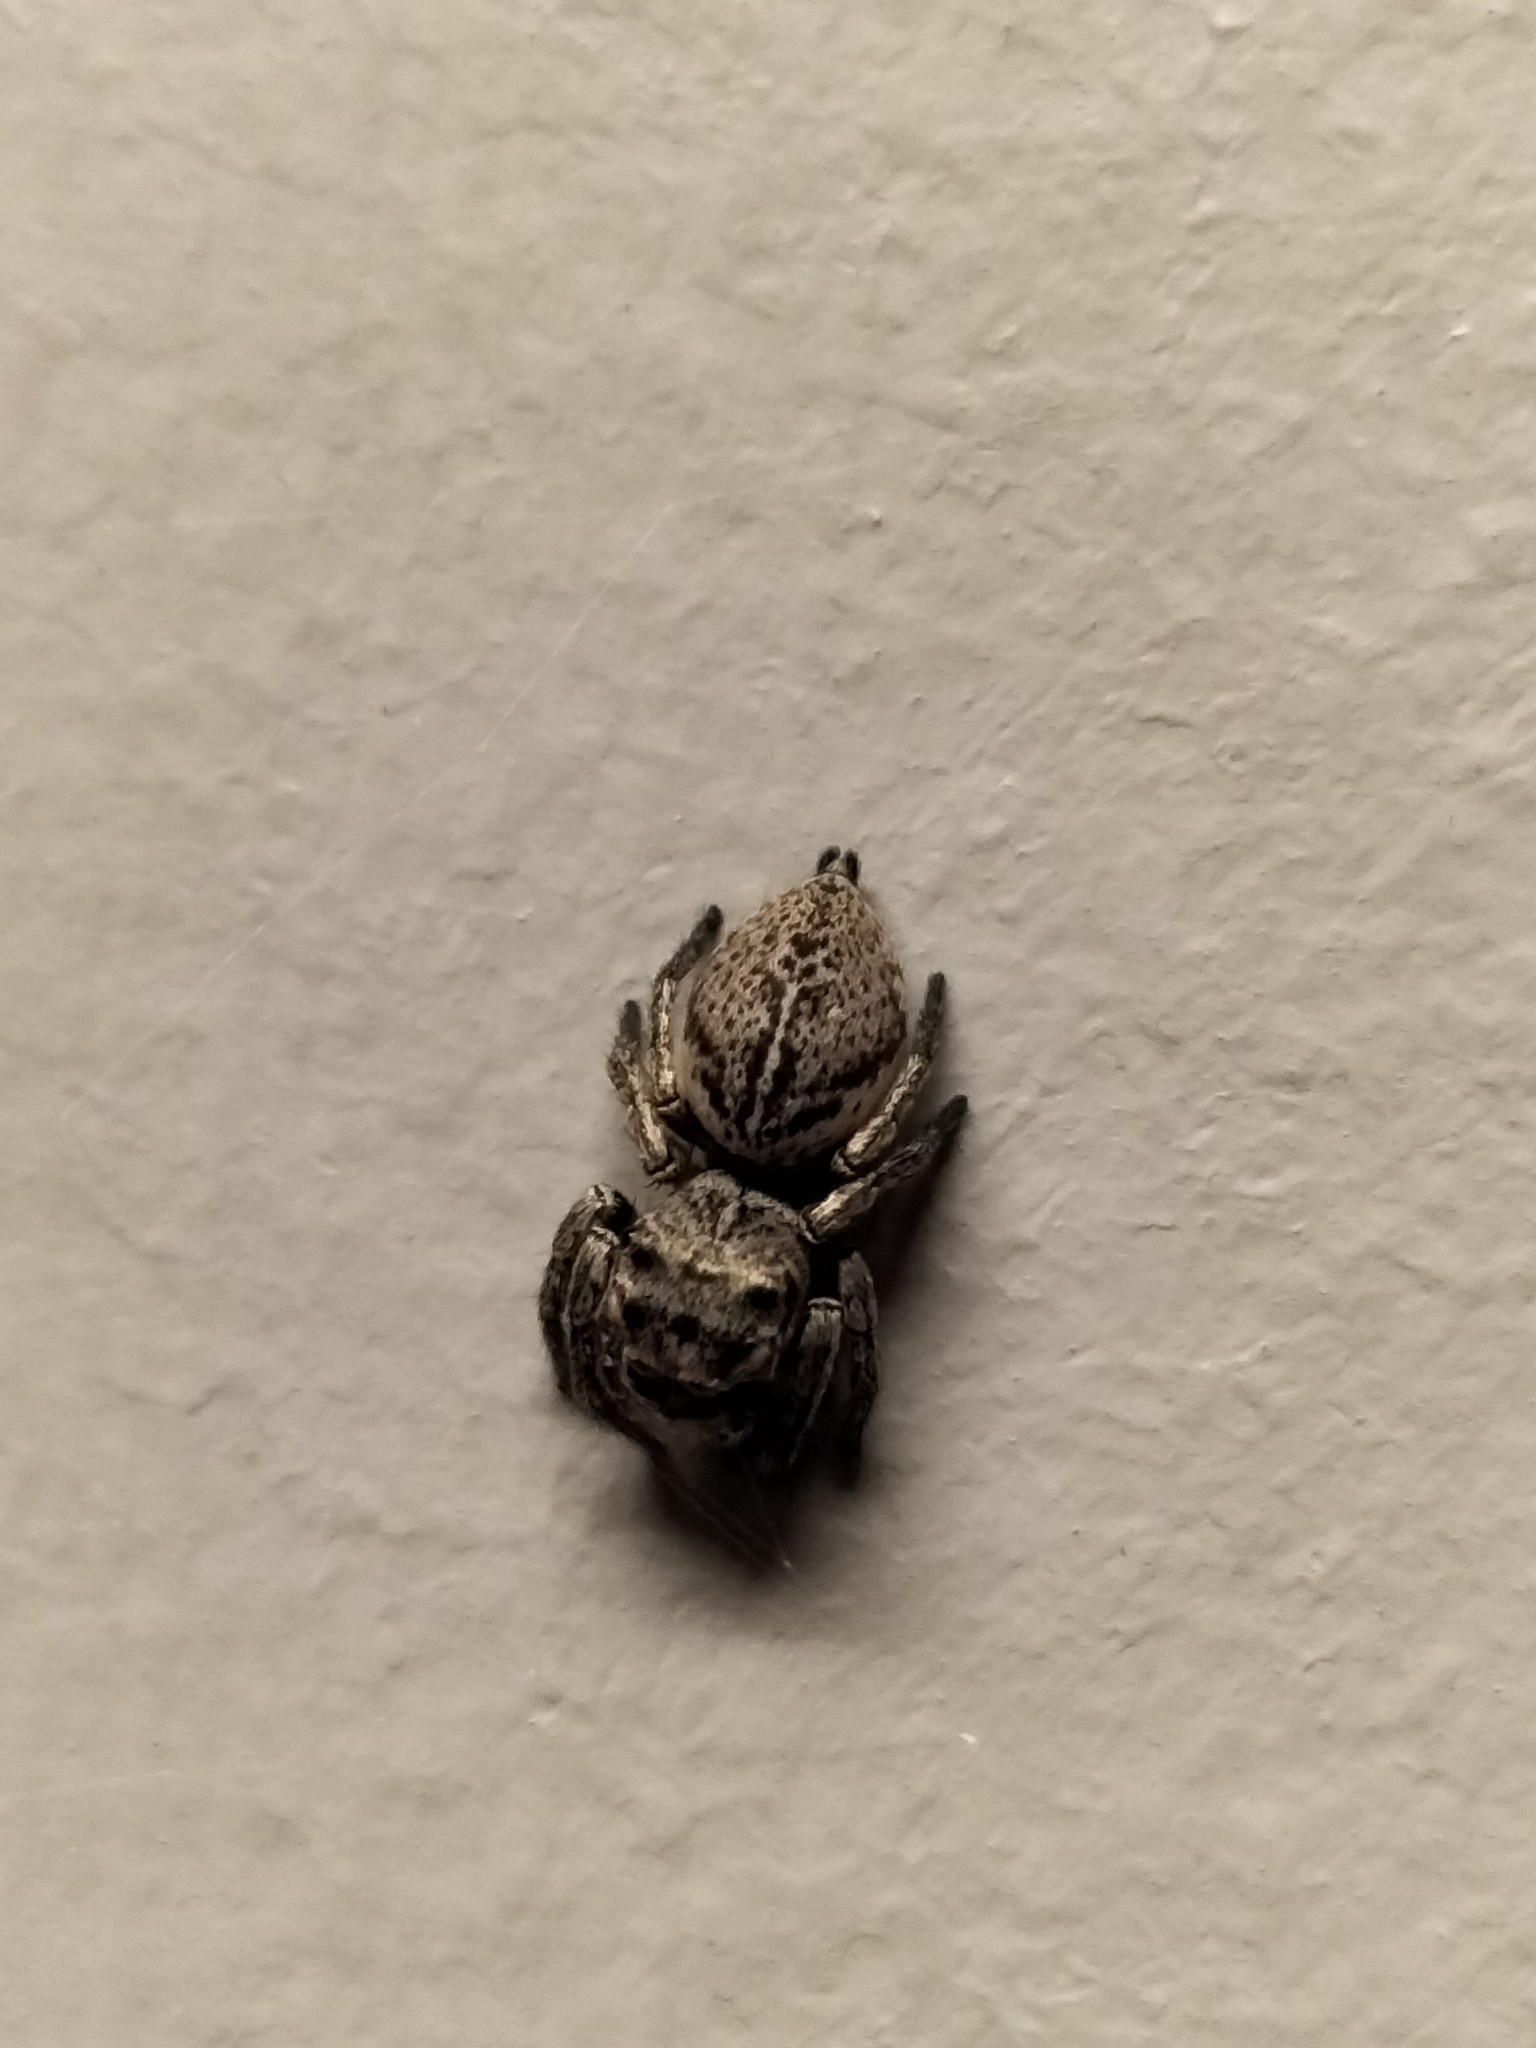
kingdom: Animalia
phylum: Arthropoda
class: Arachnida
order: Araneae
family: Salticidae
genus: Euryattus
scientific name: Euryattus bleekeri
